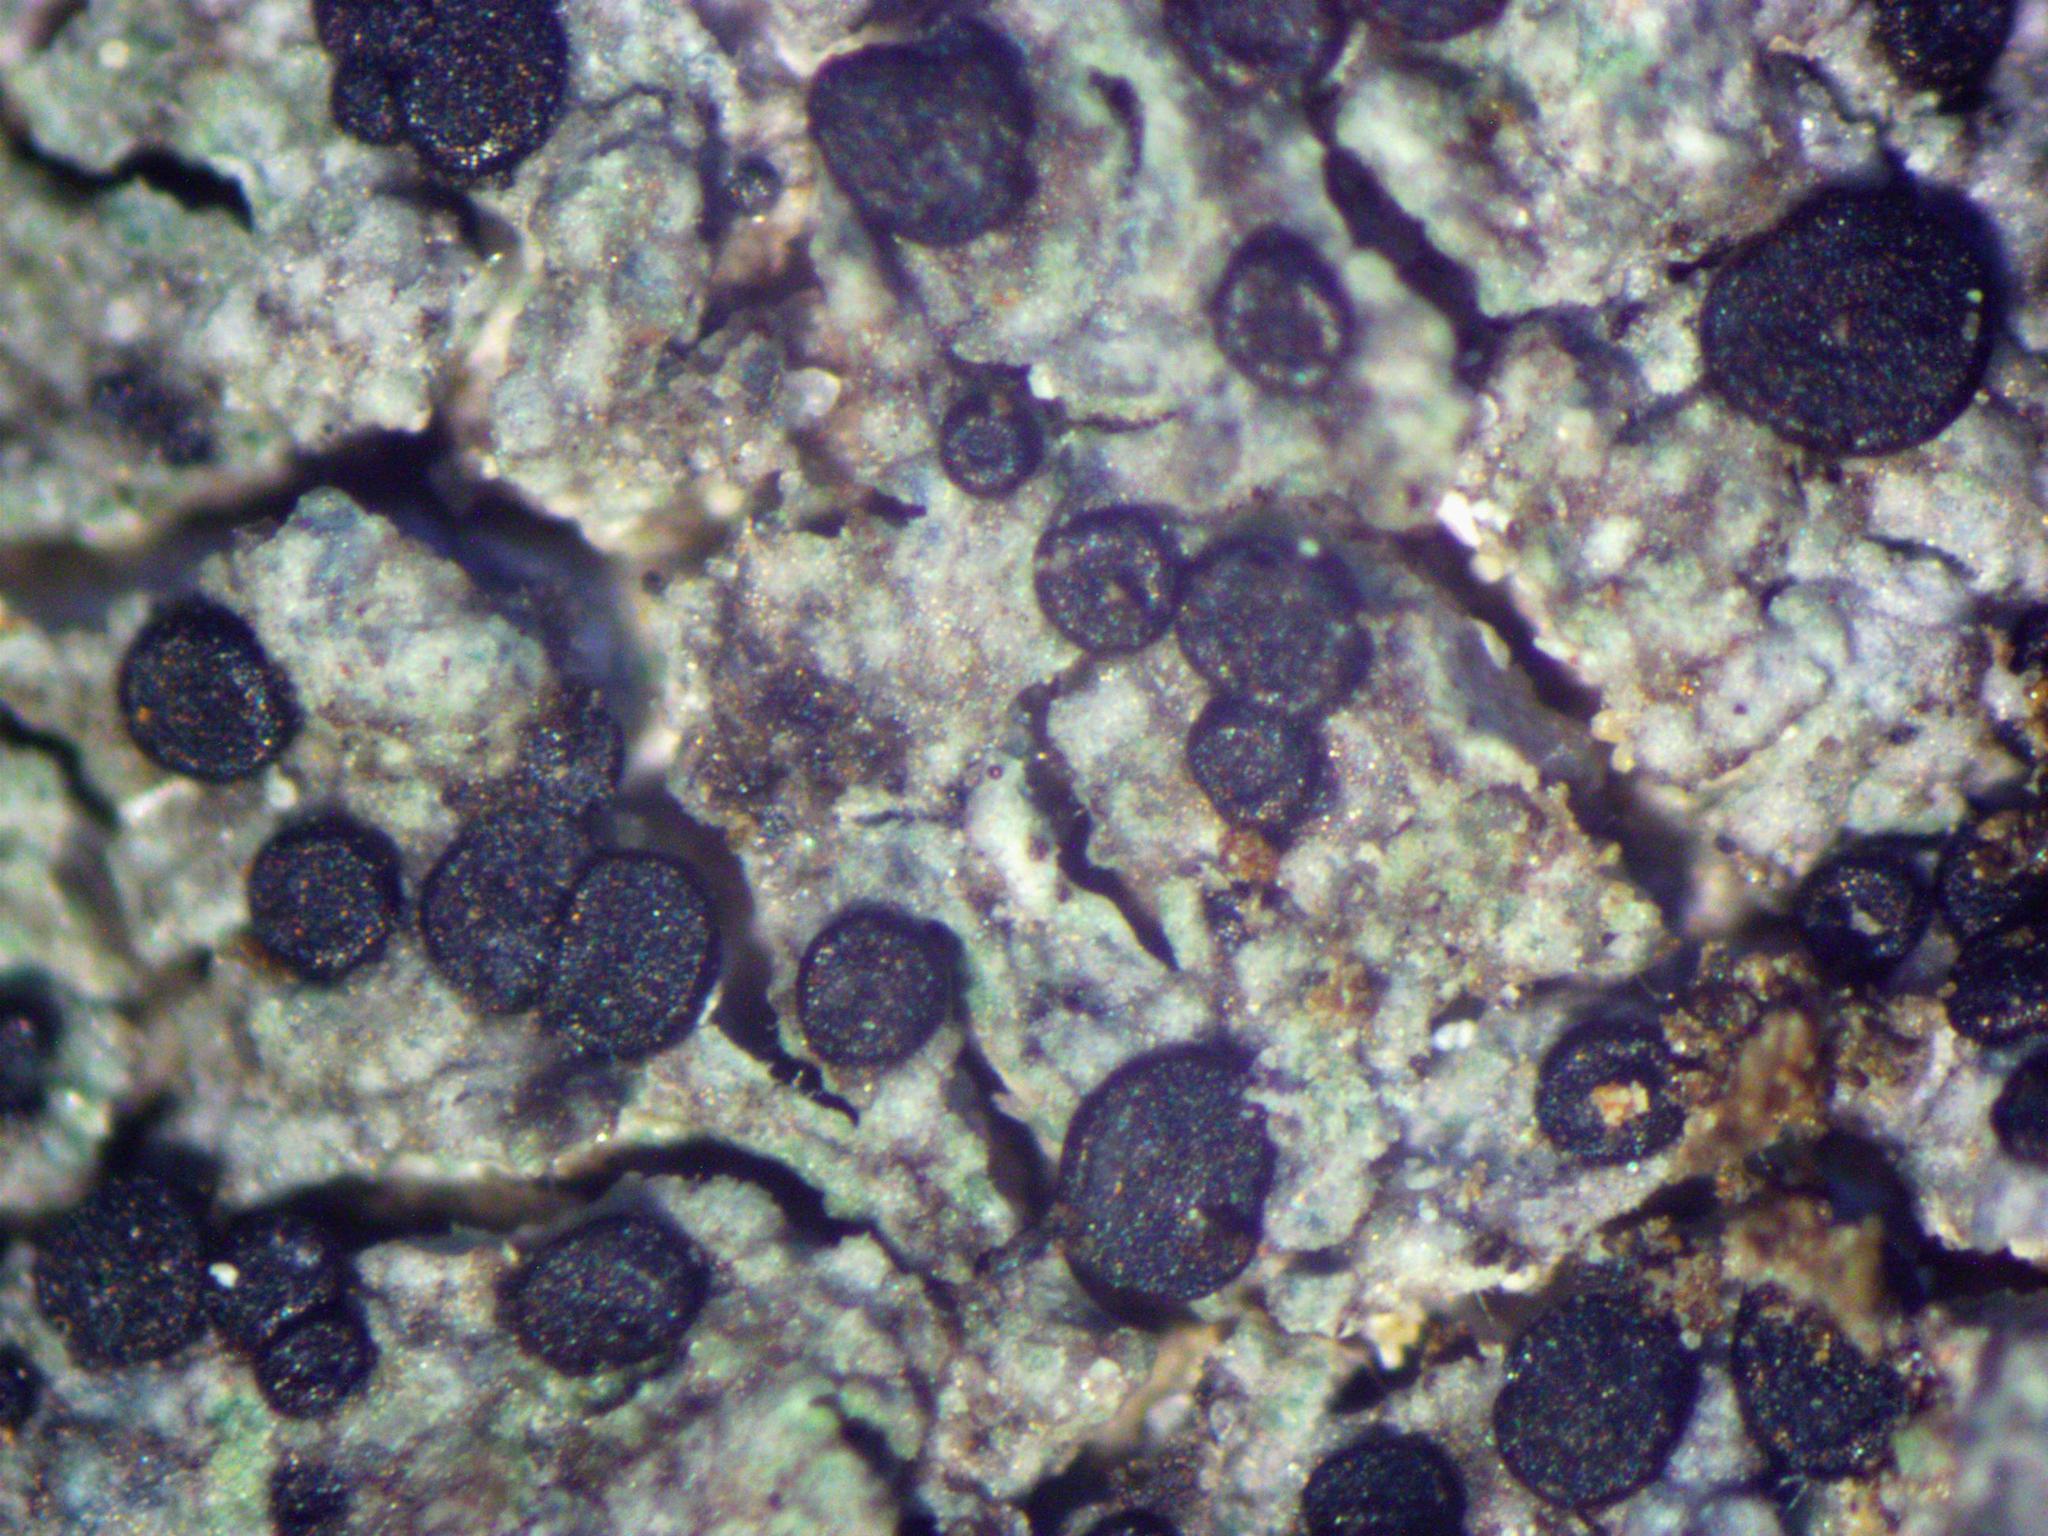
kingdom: Fungi
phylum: Ascomycota
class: Lecanoromycetes
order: Lecanorales
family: Ramalinaceae
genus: Biatora
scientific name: Biatora radicicola
